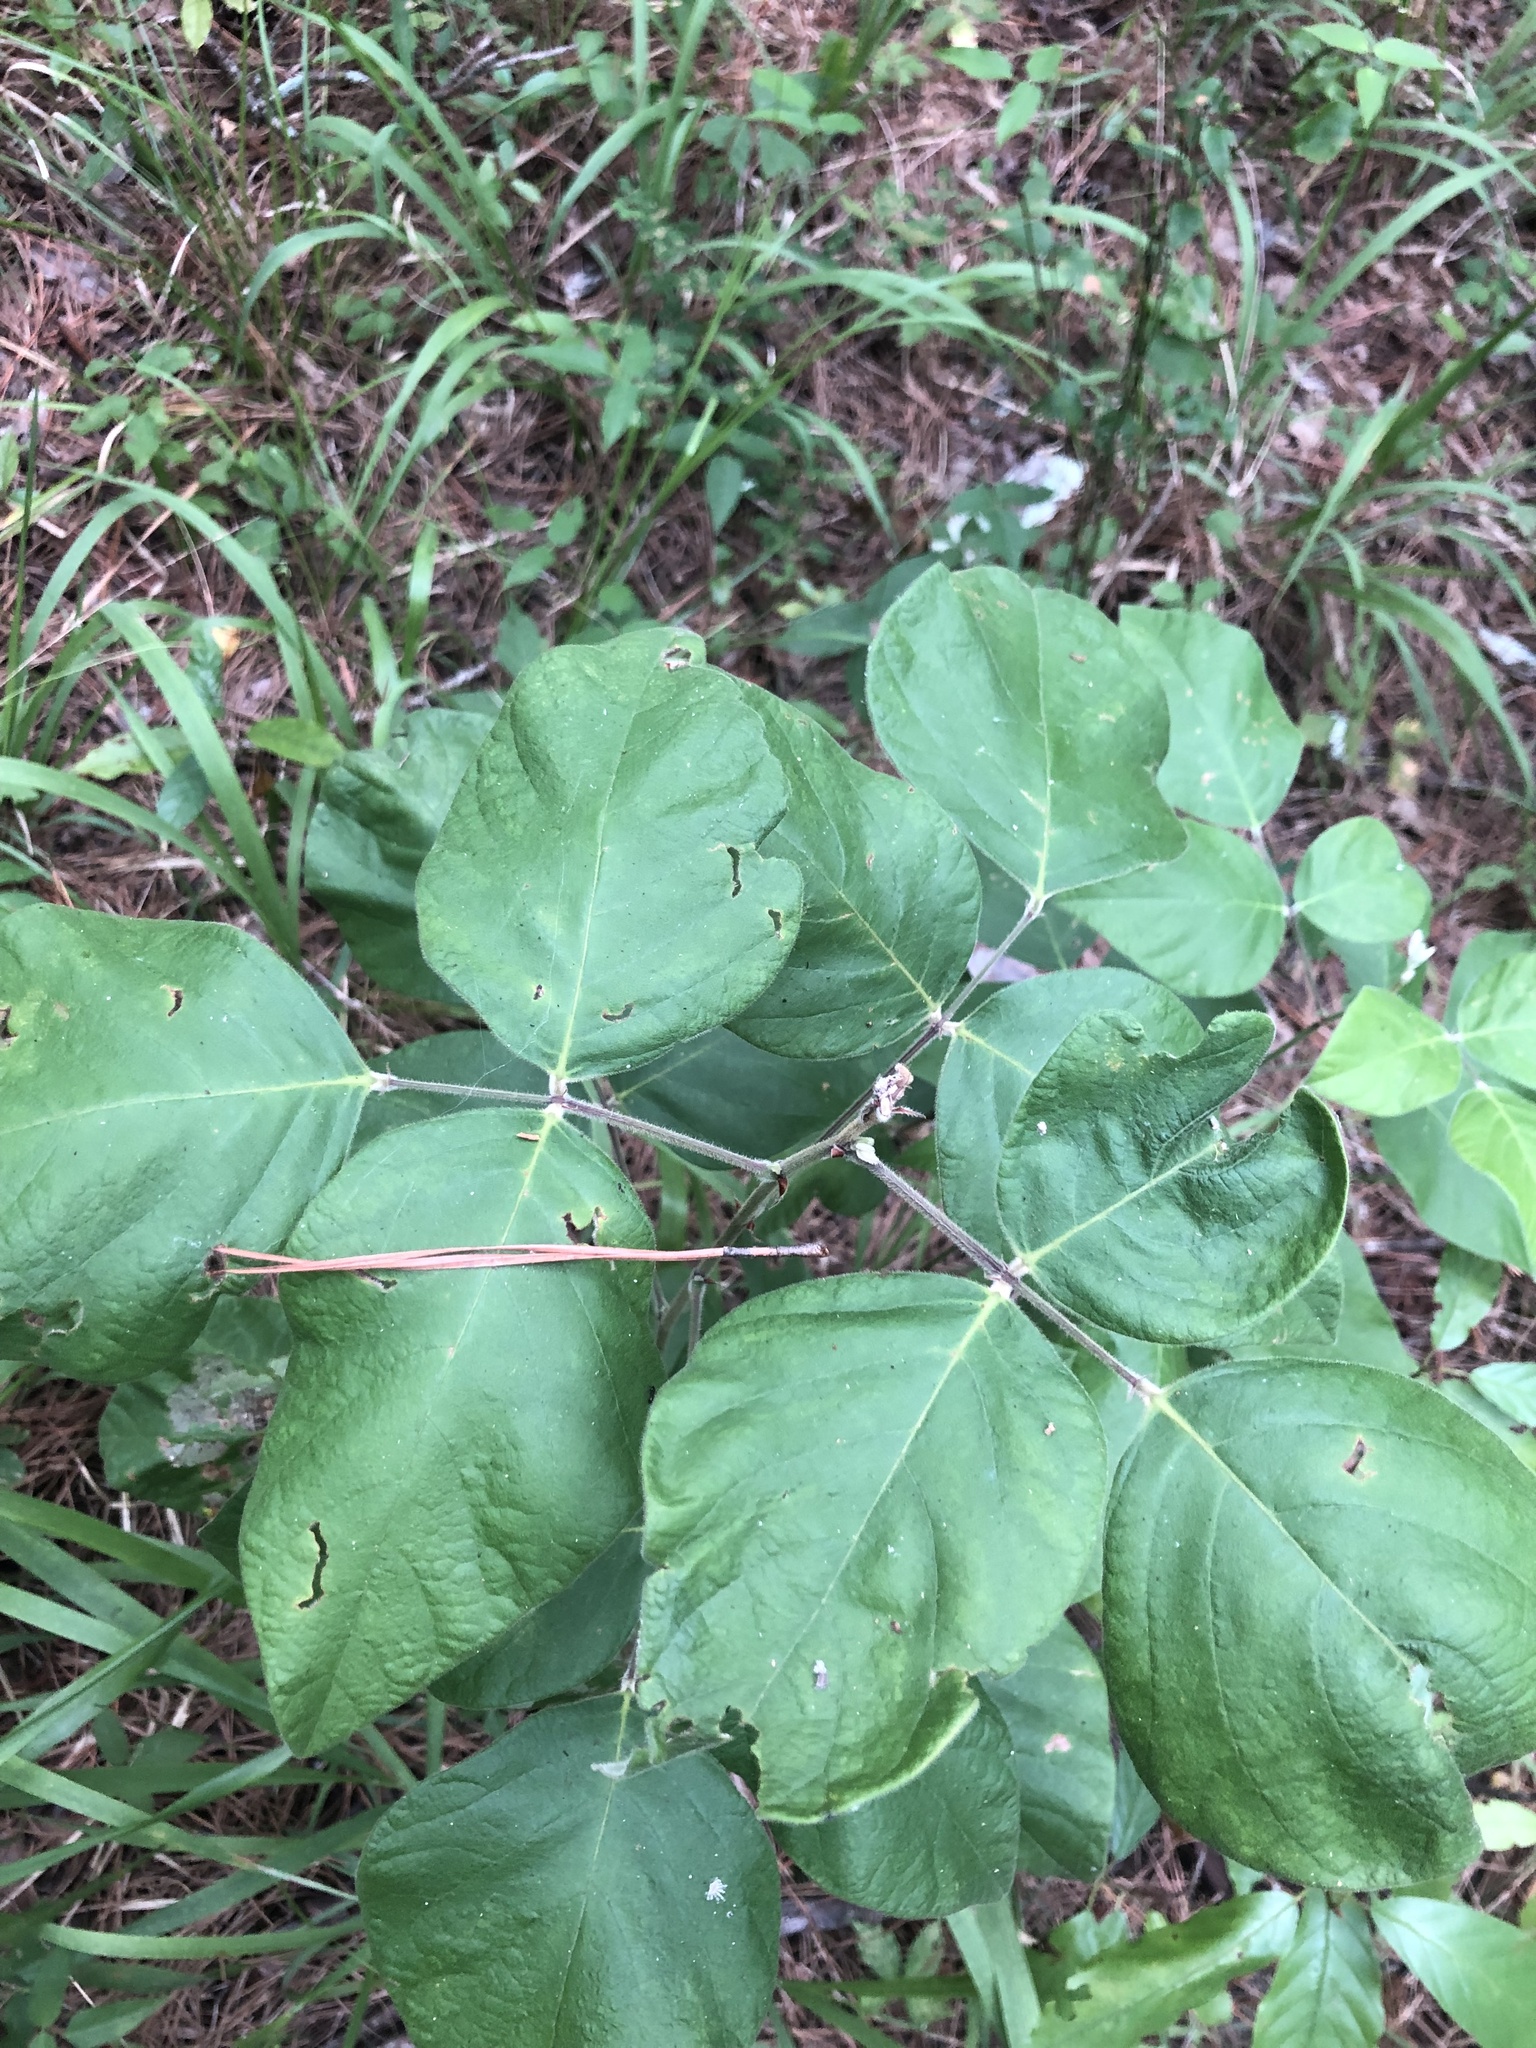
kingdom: Plantae
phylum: Tracheophyta
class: Magnoliopsida
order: Fabales
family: Fabaceae
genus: Desmodium
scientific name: Desmodium viridiflorum
